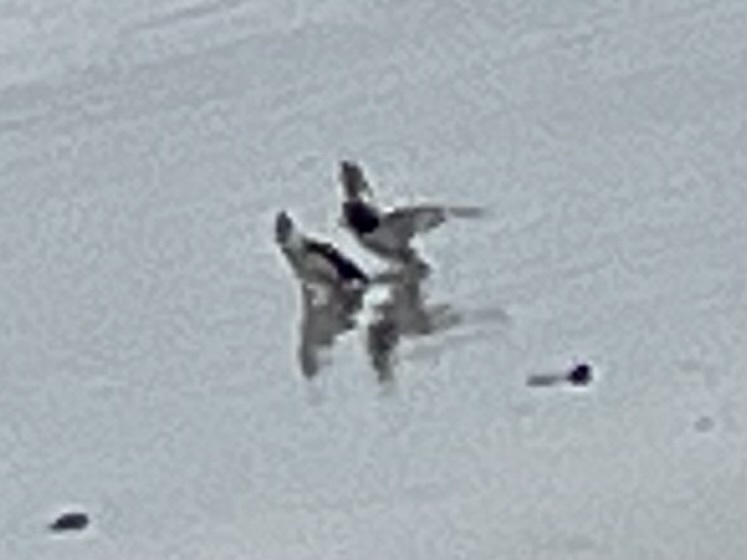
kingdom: Animalia
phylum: Chordata
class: Aves
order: Charadriiformes
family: Scolopacidae
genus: Arenaria
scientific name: Arenaria interpres
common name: Ruddy turnstone
